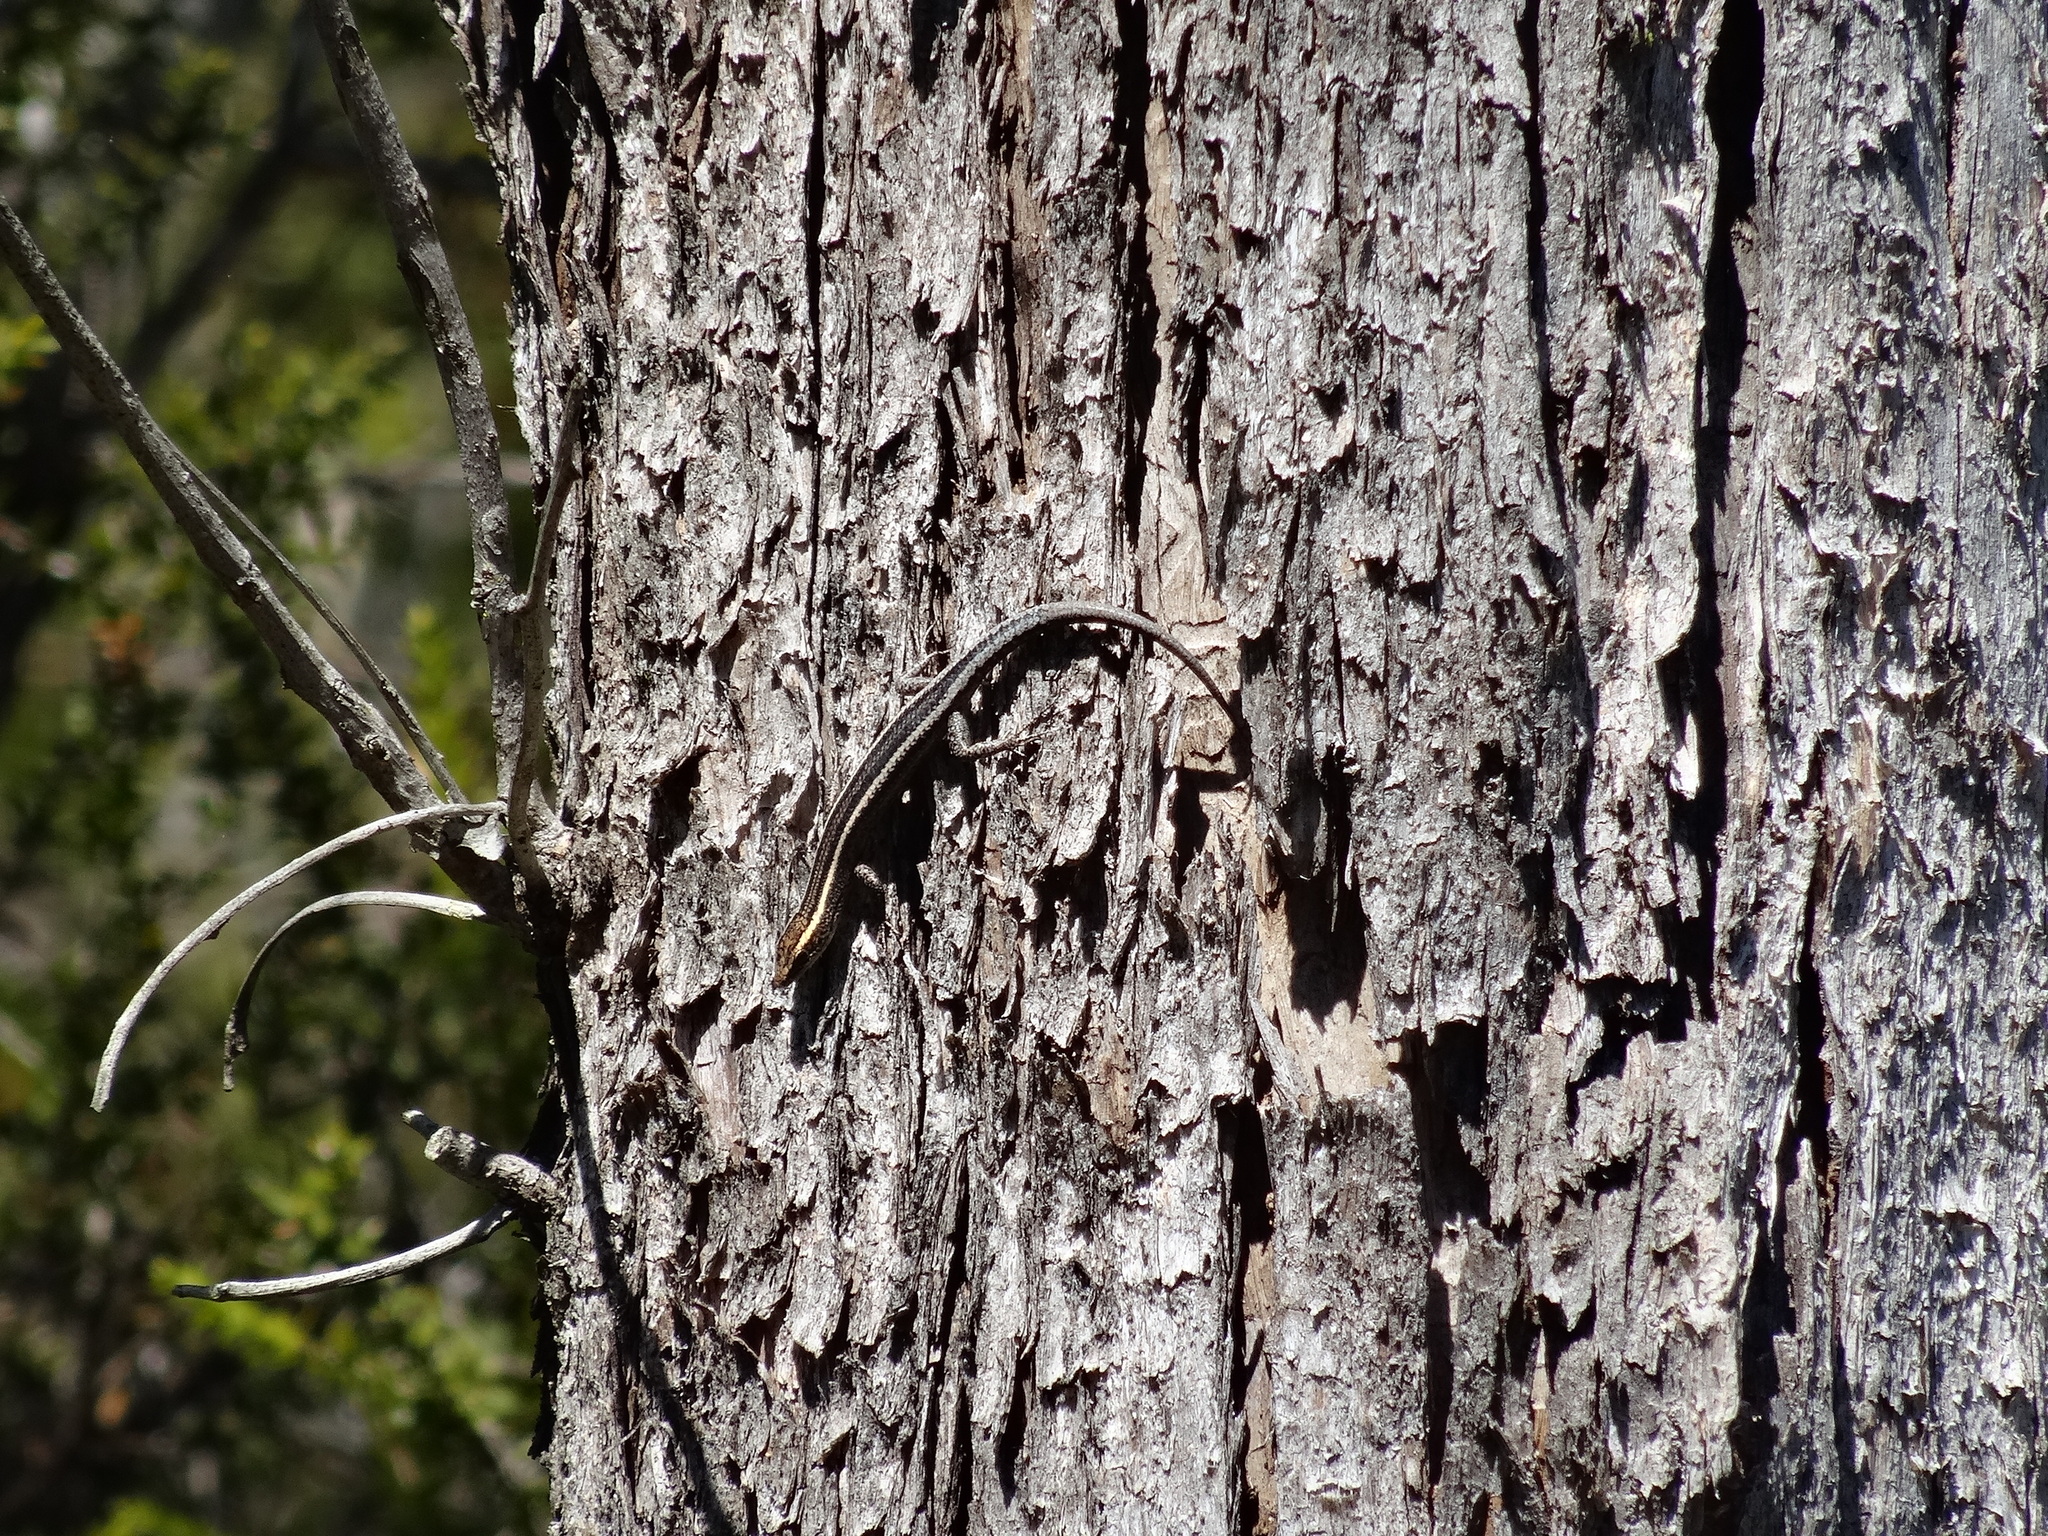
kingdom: Animalia
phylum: Chordata
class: Squamata
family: Scincidae
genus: Cryptoblepharus
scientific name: Cryptoblepharus pulcher
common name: Elegant snake-eyed skink
